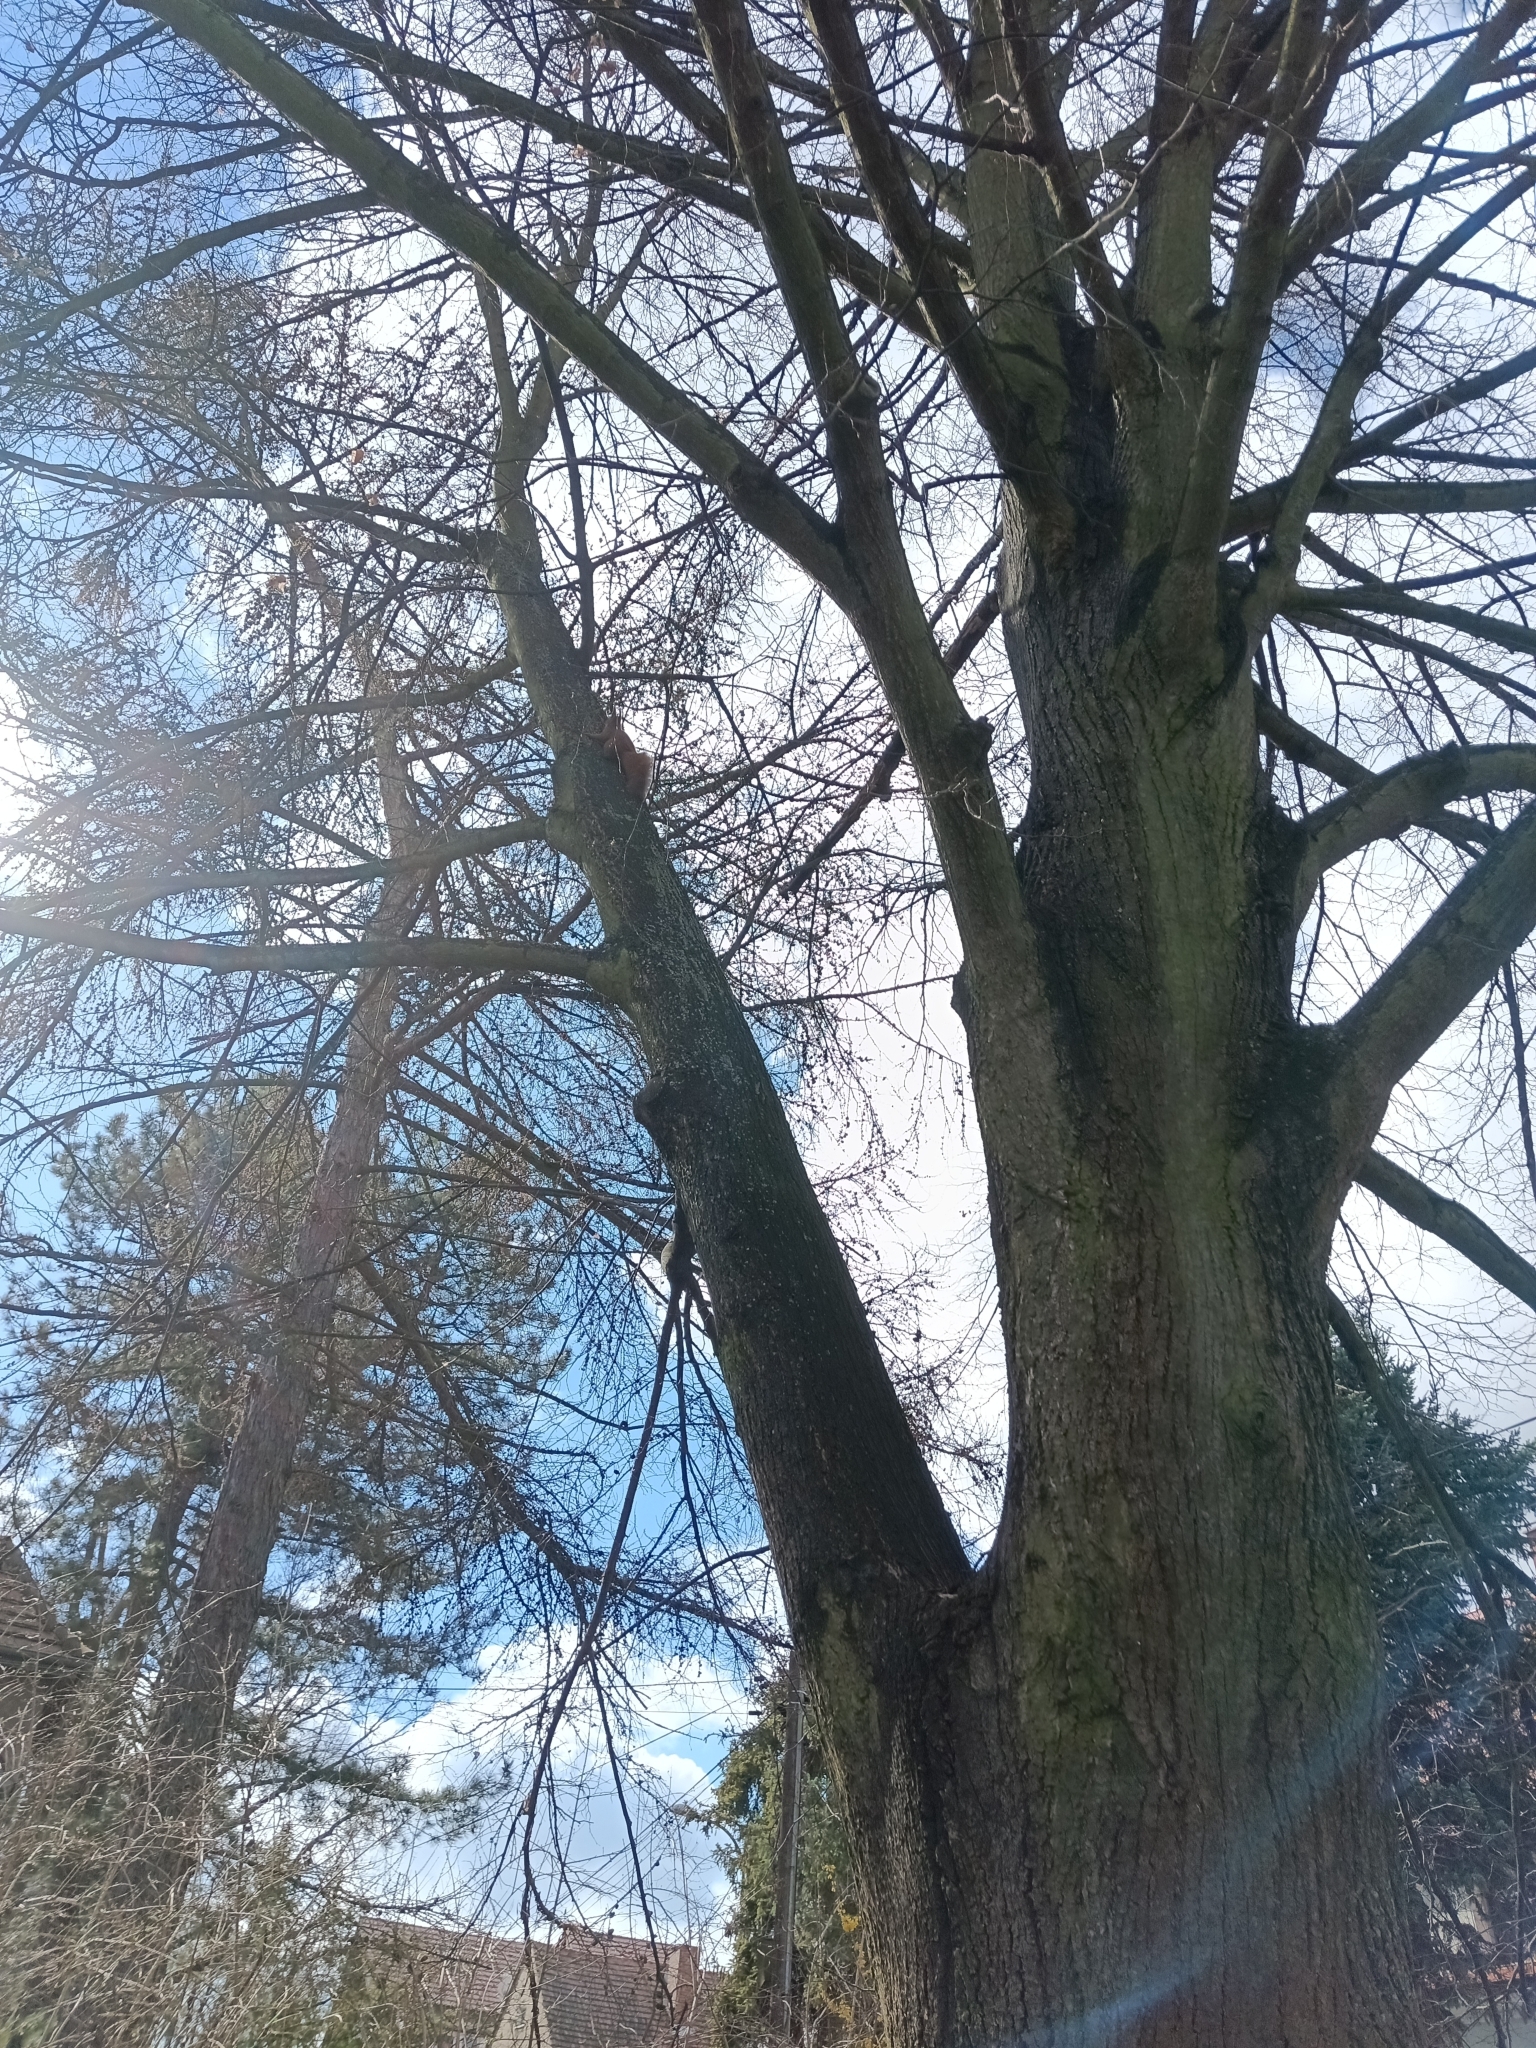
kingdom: Animalia
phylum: Chordata
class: Mammalia
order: Rodentia
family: Sciuridae
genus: Sciurus
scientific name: Sciurus vulgaris
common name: Eurasian red squirrel
